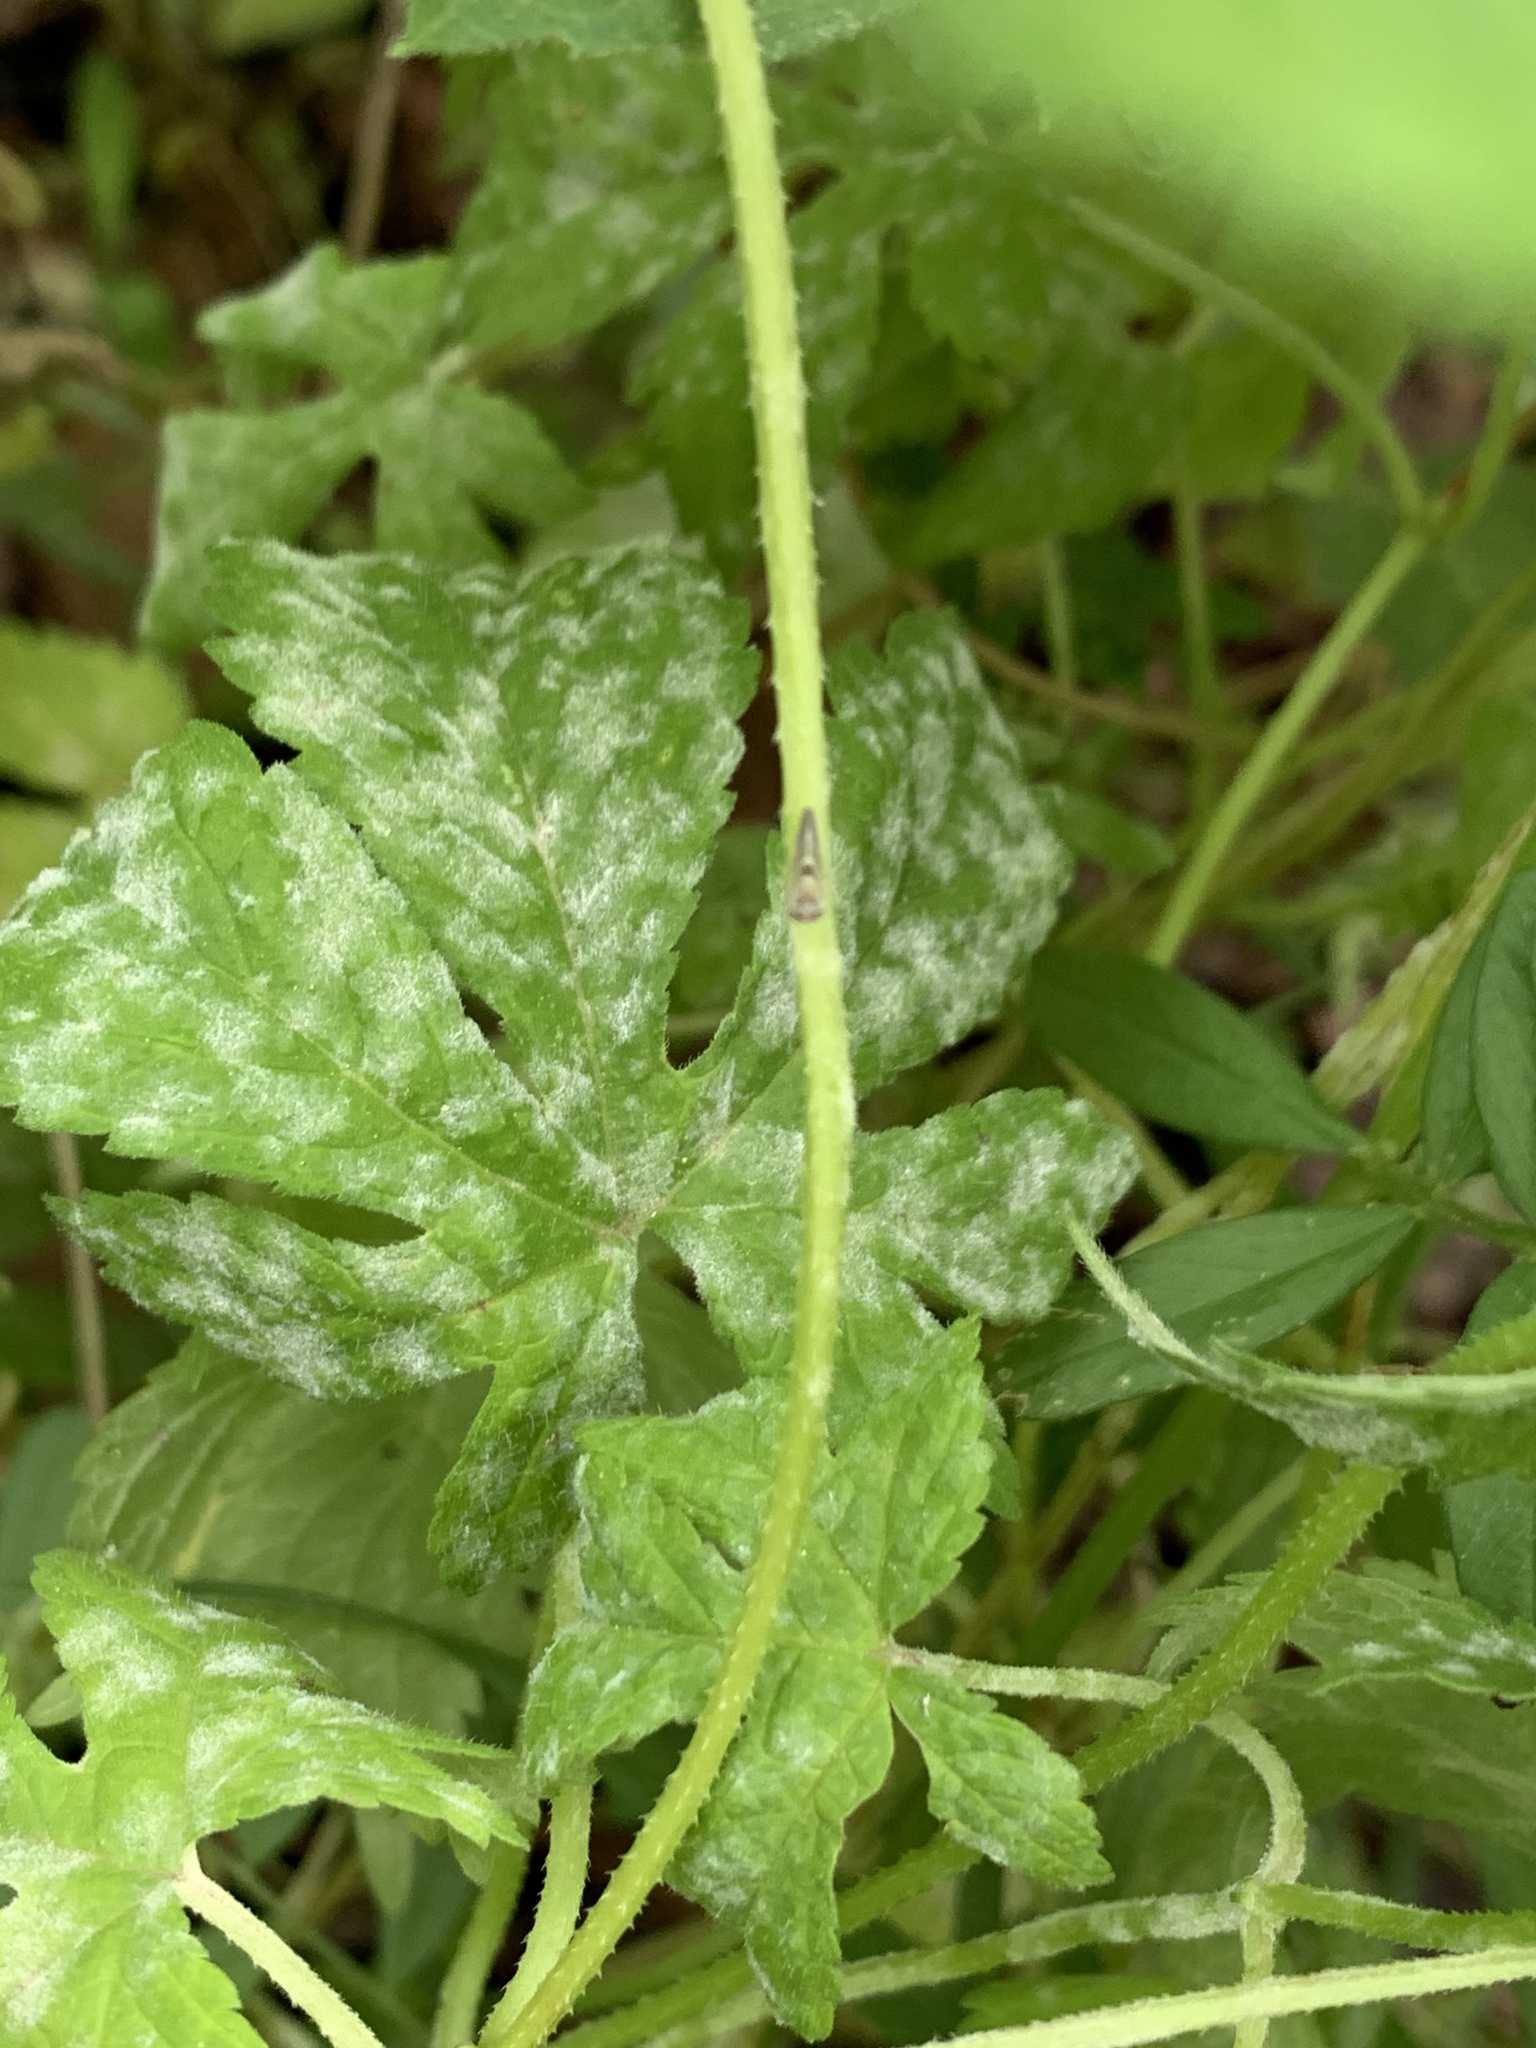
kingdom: Plantae
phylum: Tracheophyta
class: Magnoliopsida
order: Rosales
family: Cannabaceae
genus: Humulus
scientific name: Humulus scandens
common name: Japanese hop
